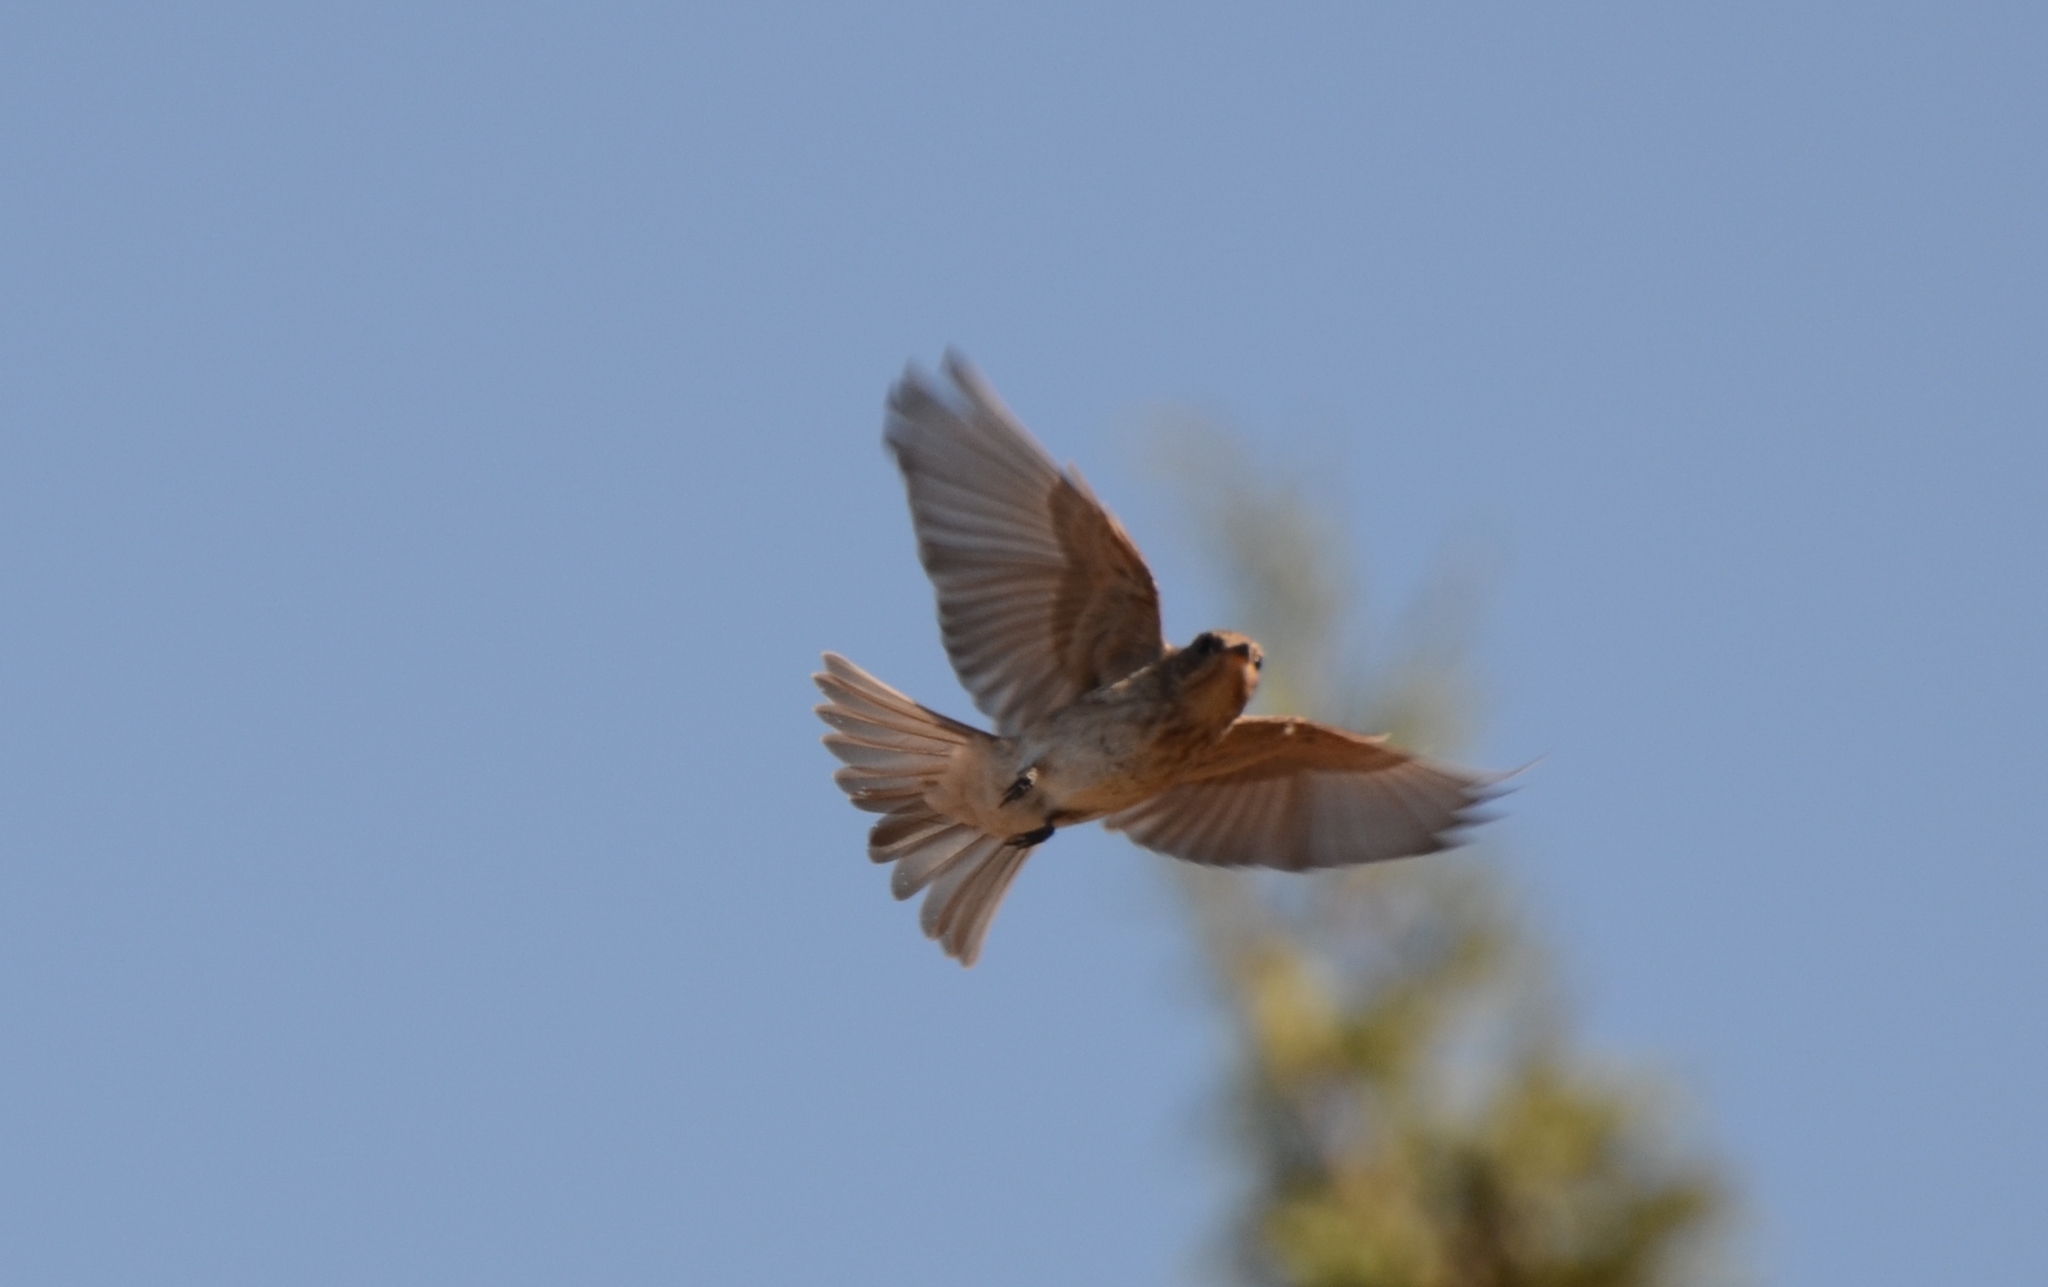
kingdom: Animalia
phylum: Chordata
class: Aves
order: Passeriformes
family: Muscicapidae
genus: Muscicapa
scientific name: Muscicapa striata
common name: Spotted flycatcher
